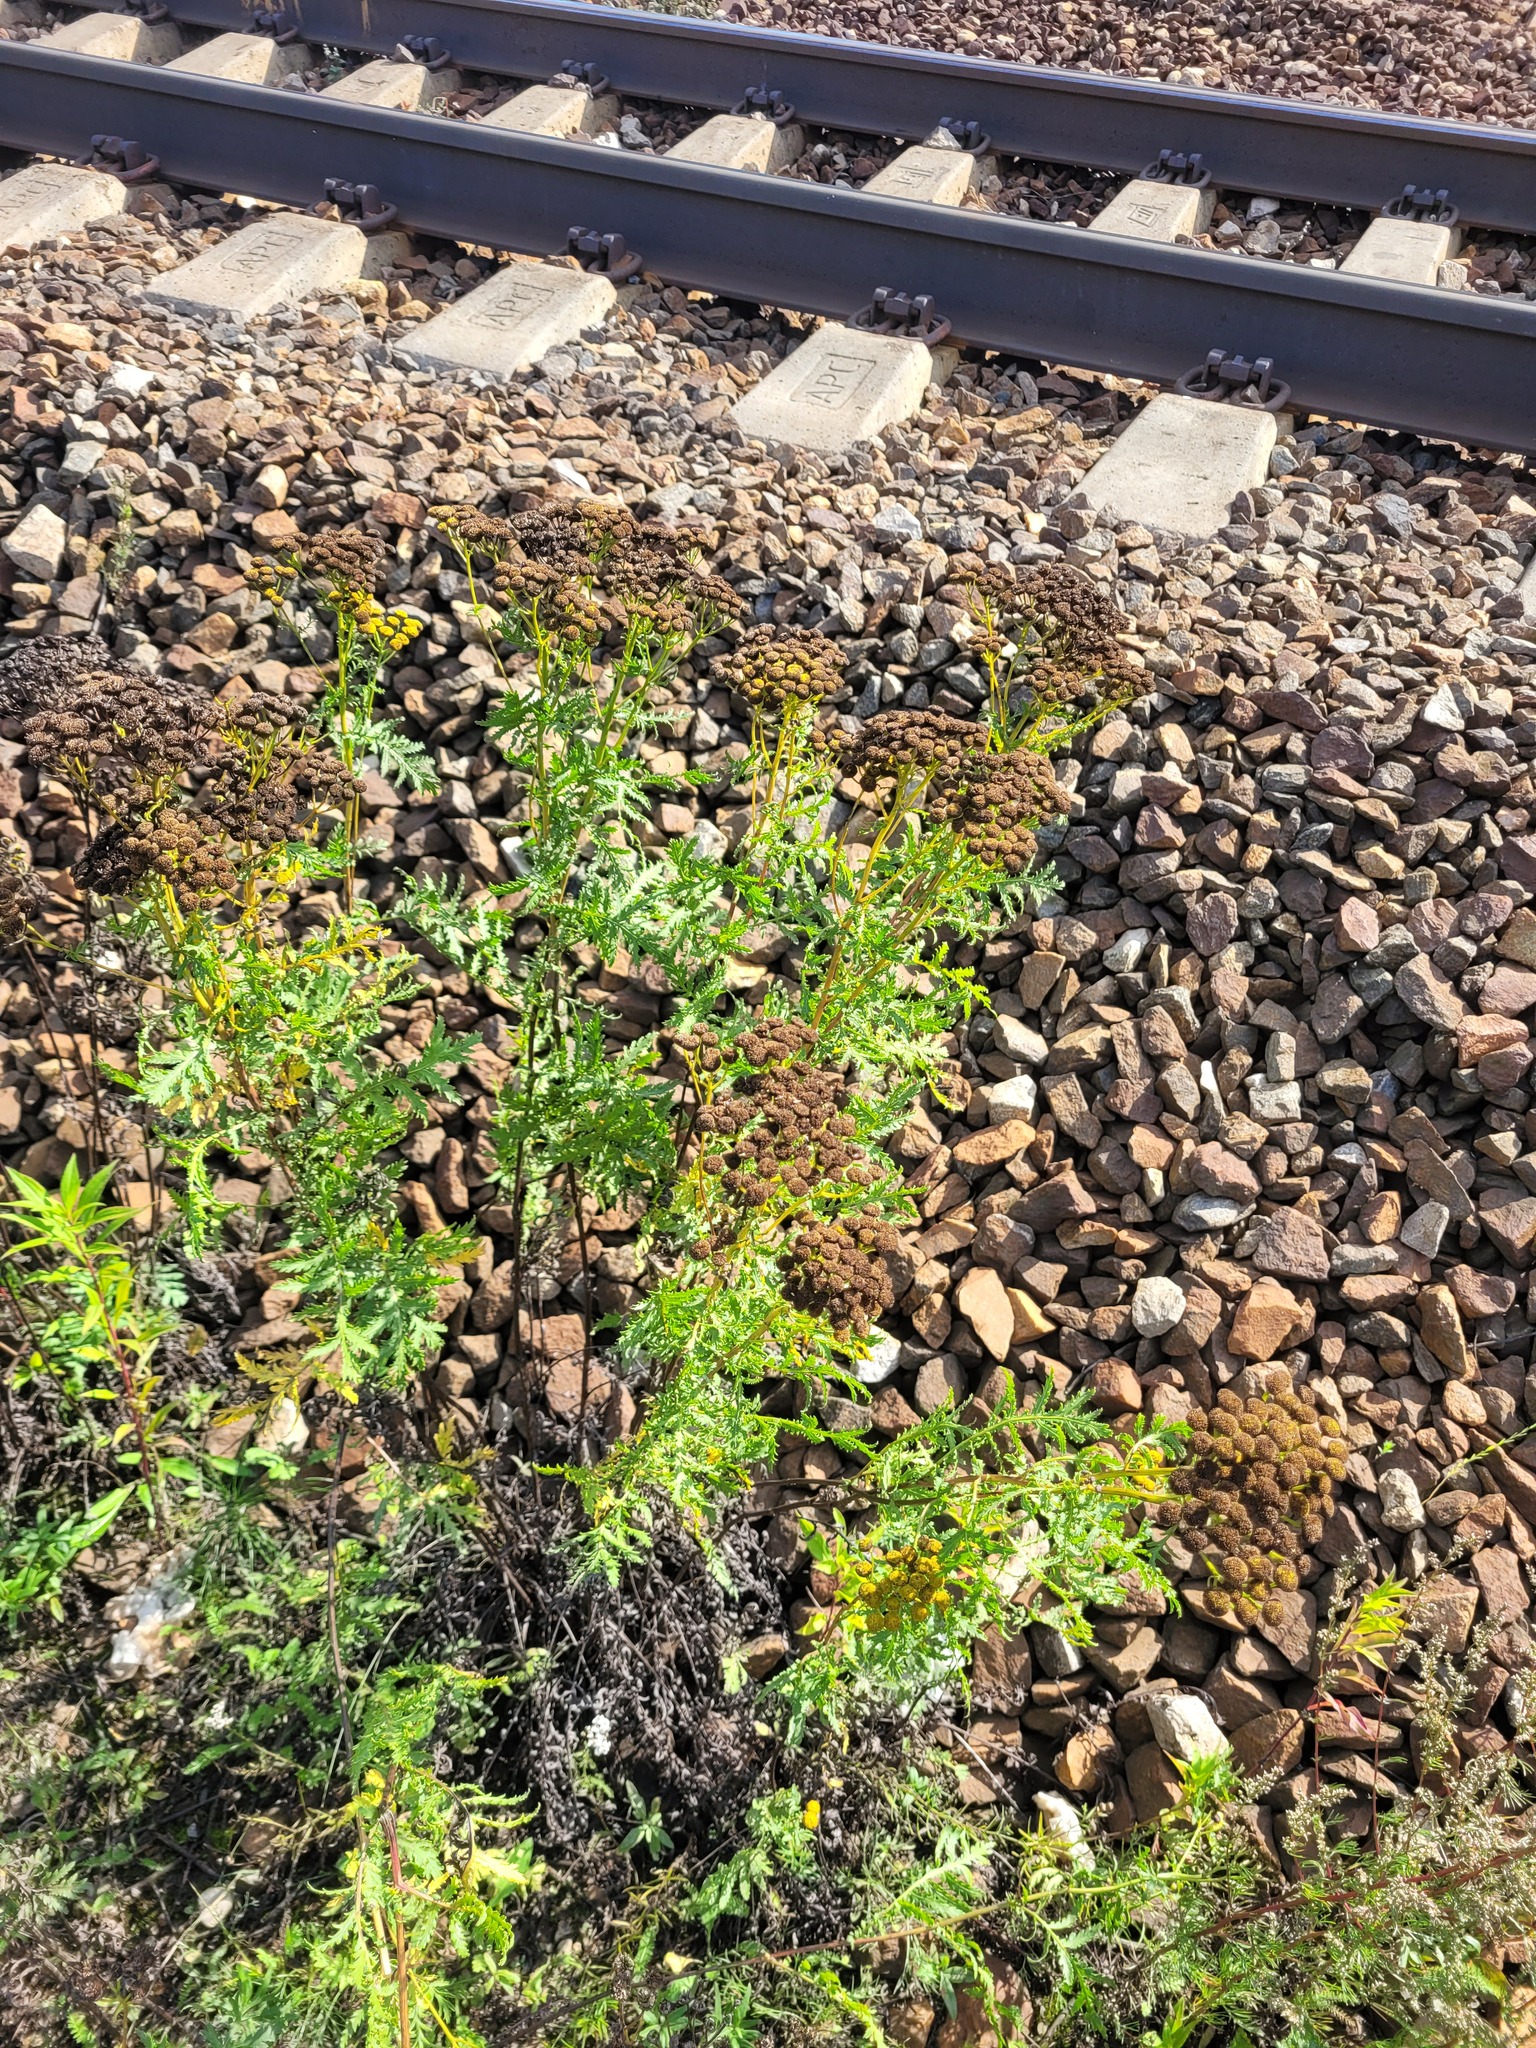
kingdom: Plantae
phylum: Tracheophyta
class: Magnoliopsida
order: Asterales
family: Asteraceae
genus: Tanacetum
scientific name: Tanacetum vulgare
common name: Common tansy
